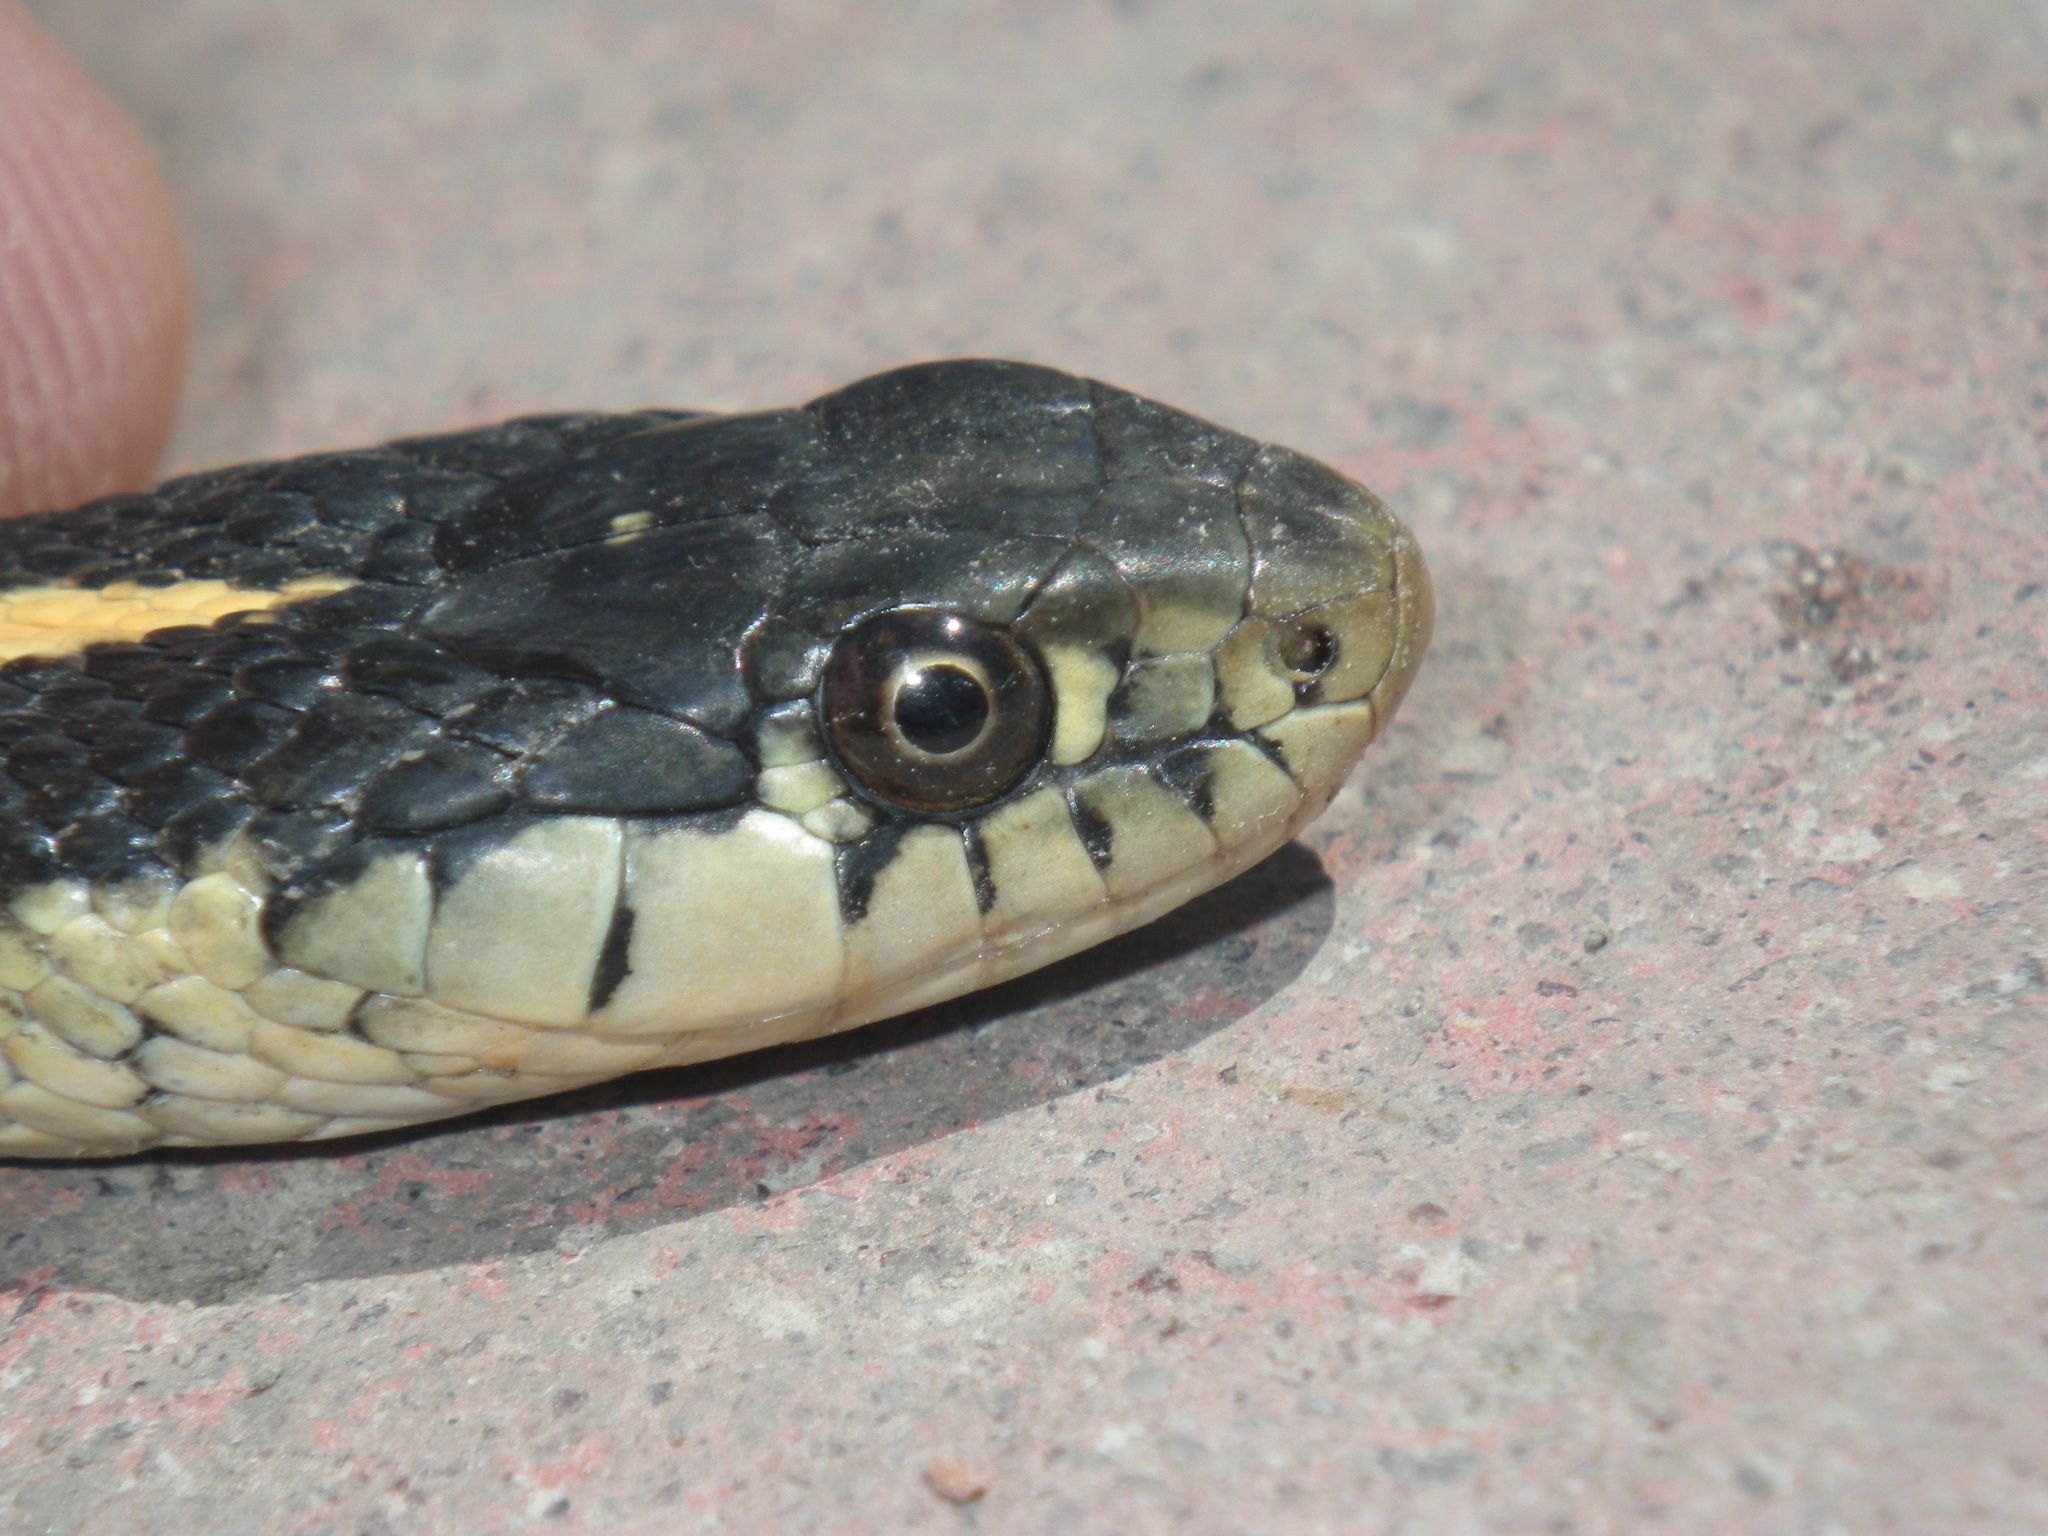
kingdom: Animalia
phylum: Chordata
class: Squamata
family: Colubridae
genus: Thamnophis
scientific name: Thamnophis elegans
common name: Western terrestrial garter snake
